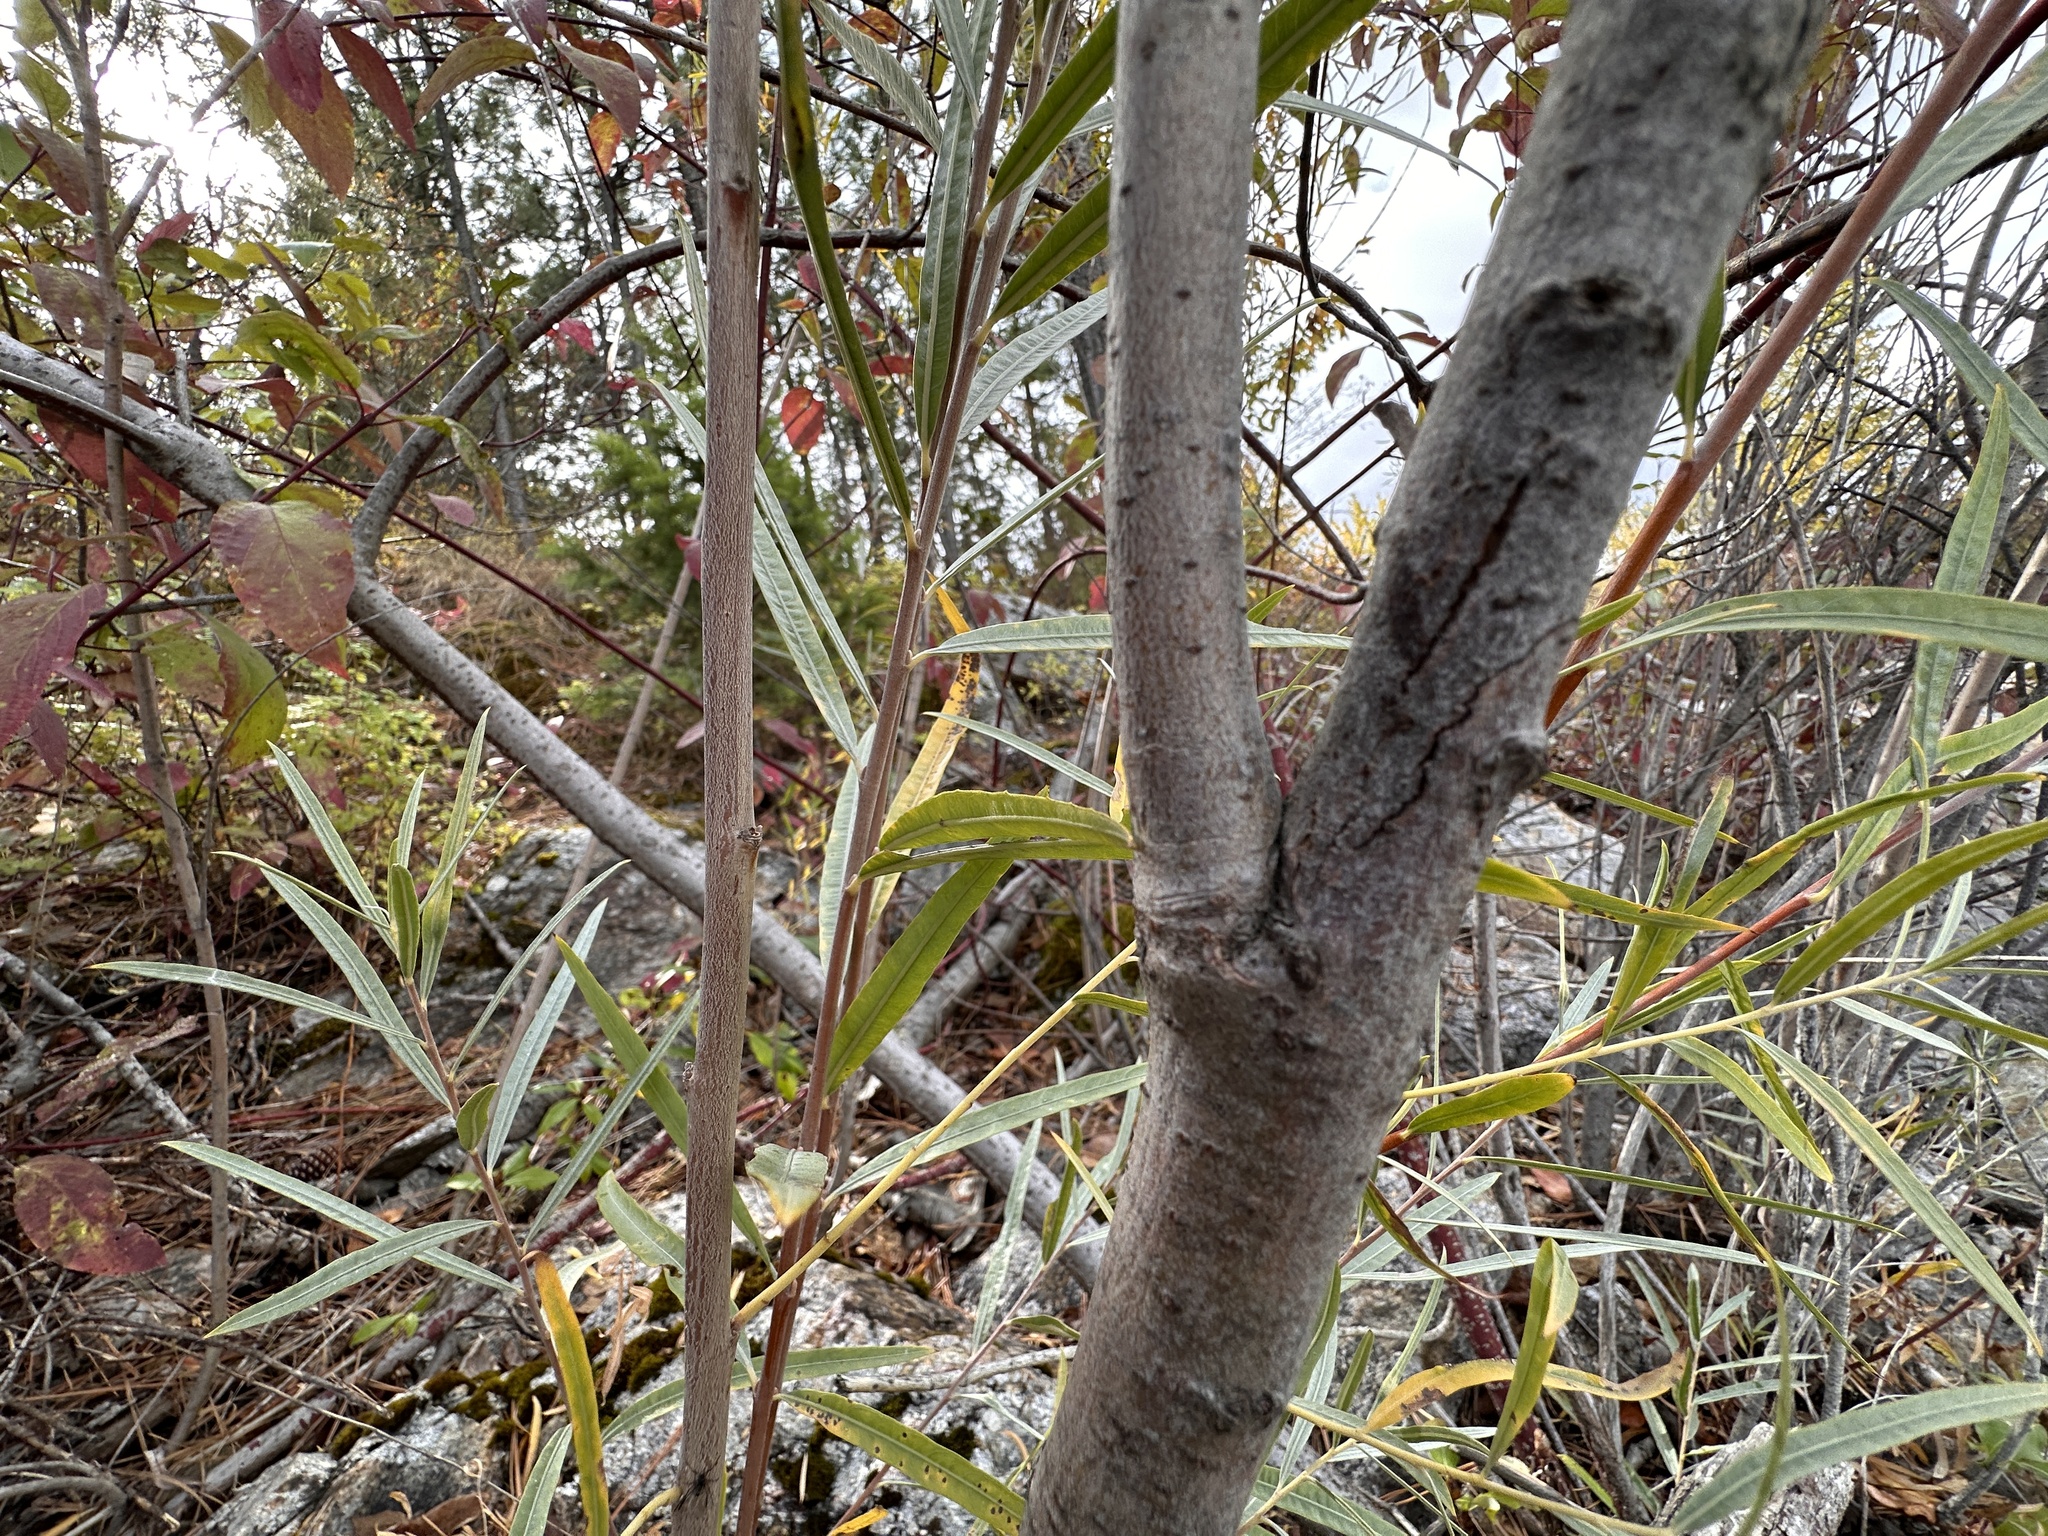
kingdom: Plantae
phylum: Tracheophyta
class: Magnoliopsida
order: Malpighiales
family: Salicaceae
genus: Salix
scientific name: Salix interior
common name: Sandbar willow
